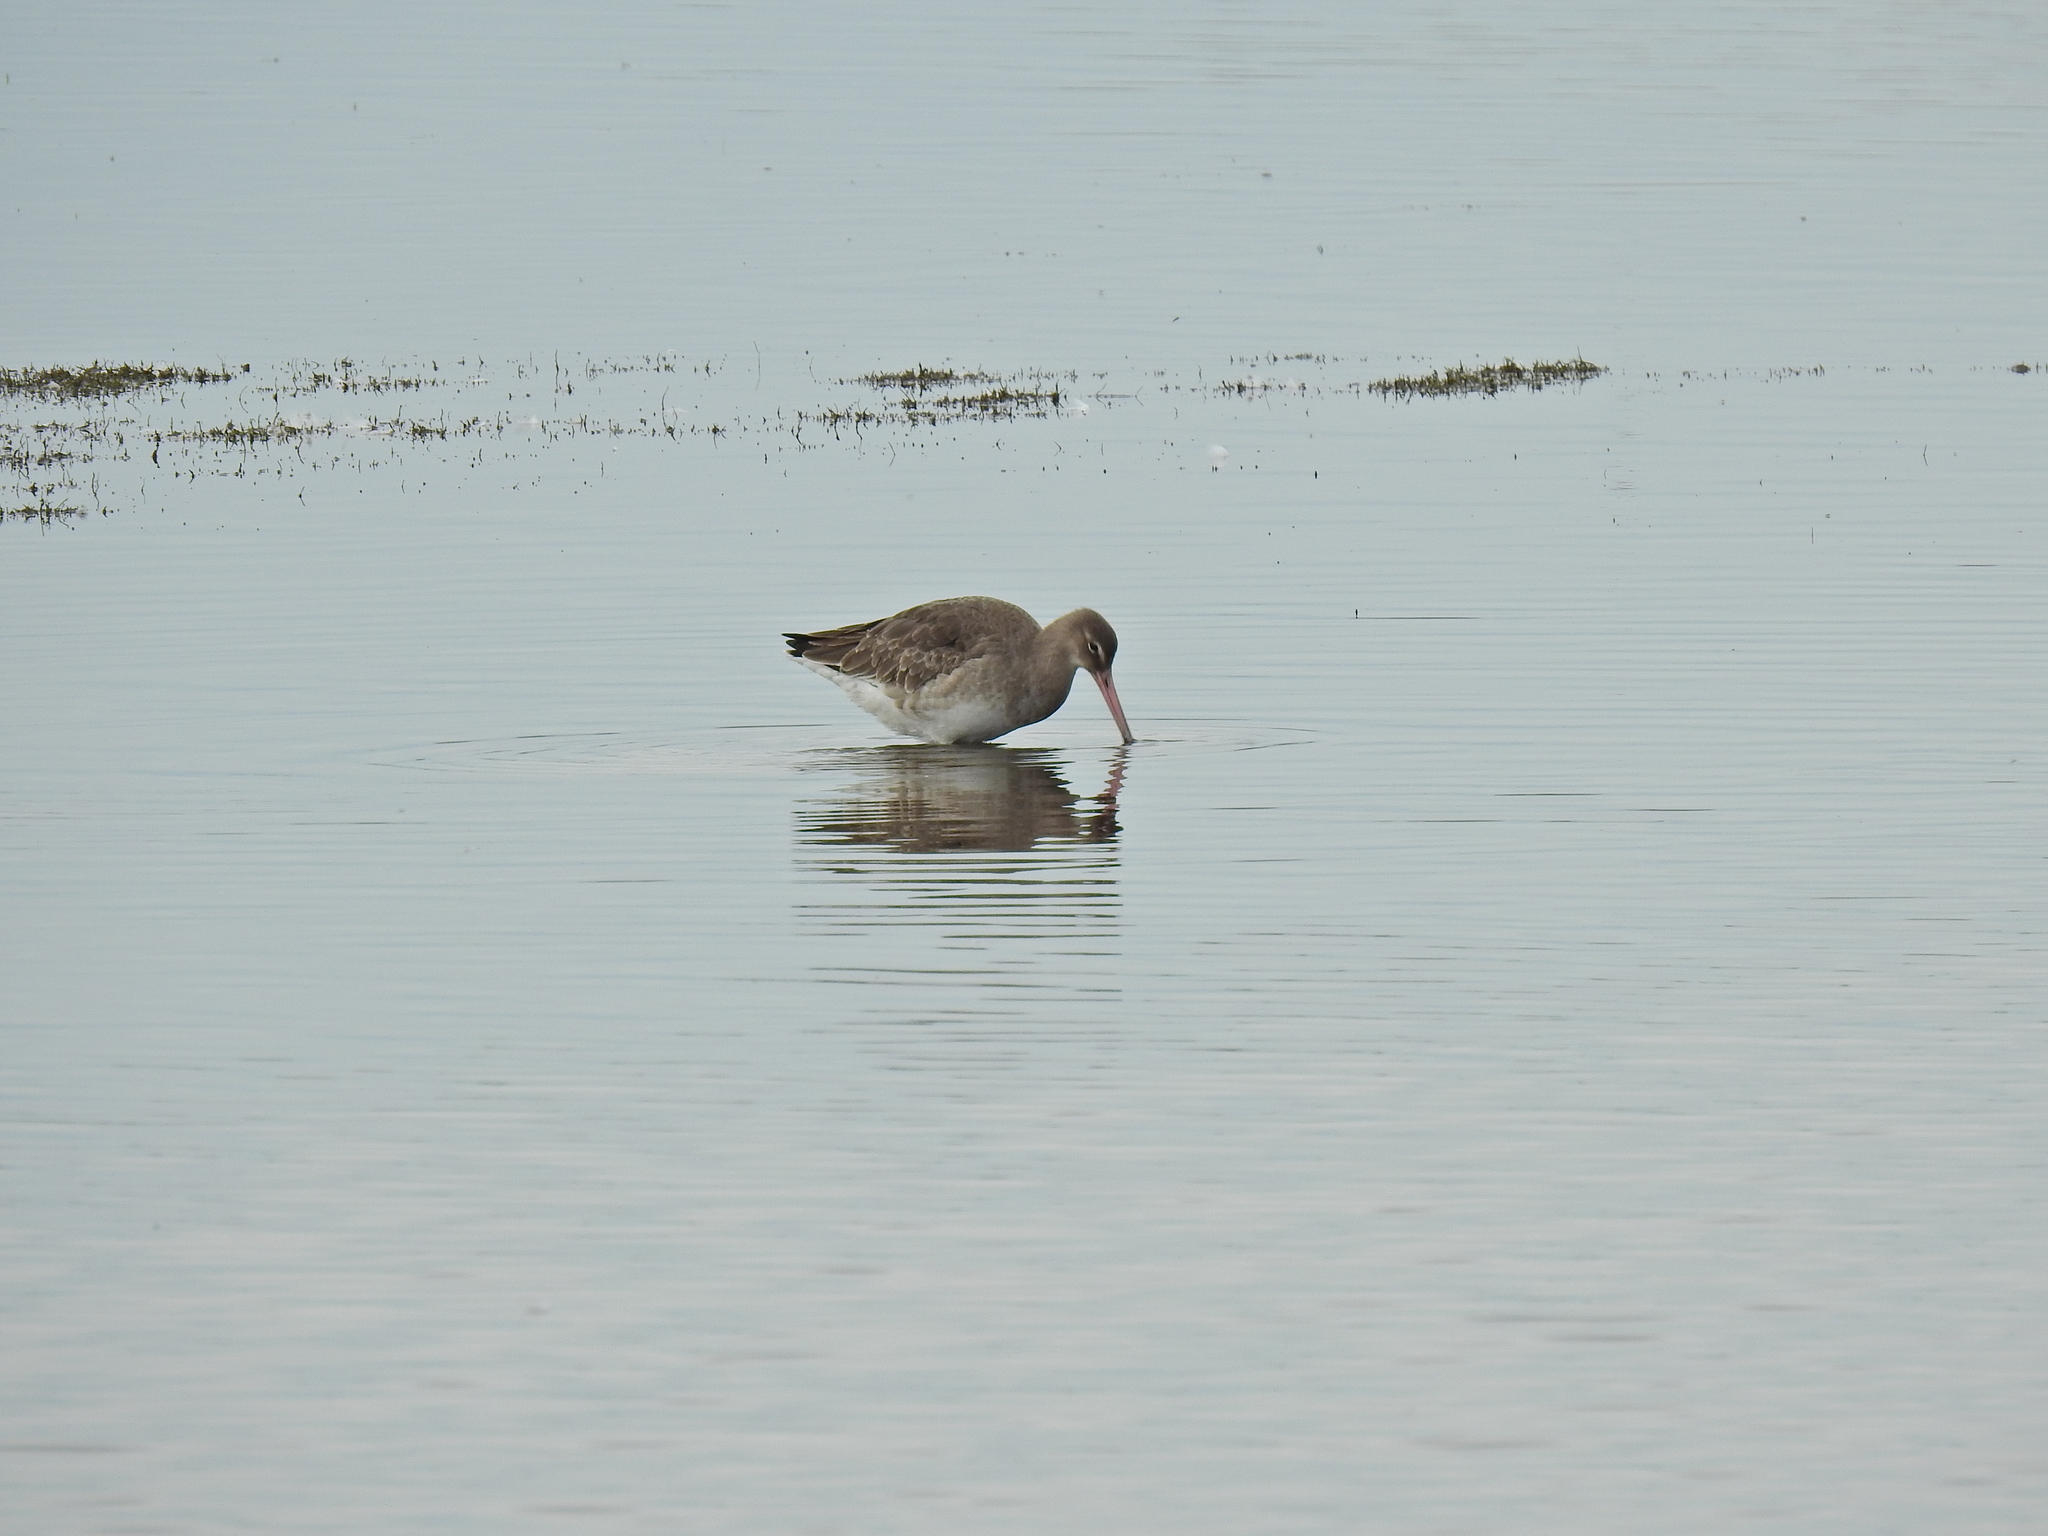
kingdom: Animalia
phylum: Chordata
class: Aves
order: Charadriiformes
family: Scolopacidae
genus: Limosa
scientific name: Limosa limosa
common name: Black-tailed godwit
